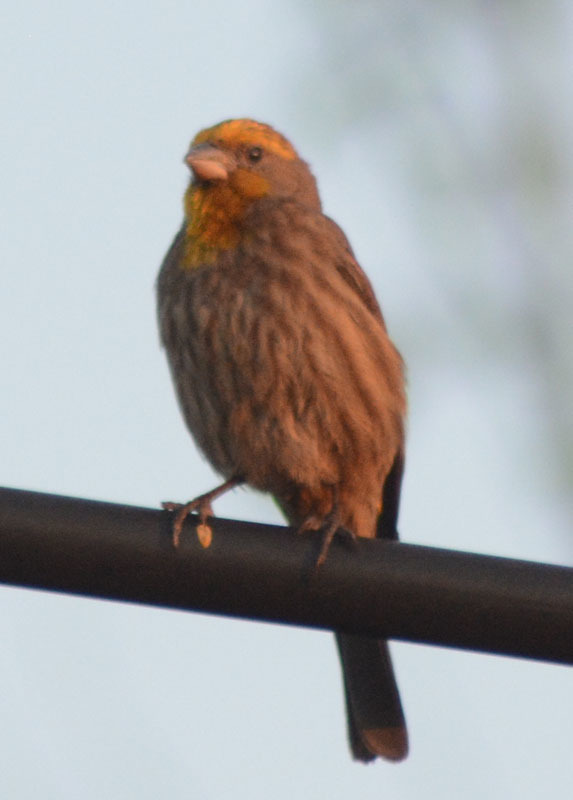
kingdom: Animalia
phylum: Chordata
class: Aves
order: Passeriformes
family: Fringillidae
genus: Haemorhous
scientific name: Haemorhous mexicanus
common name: House finch
